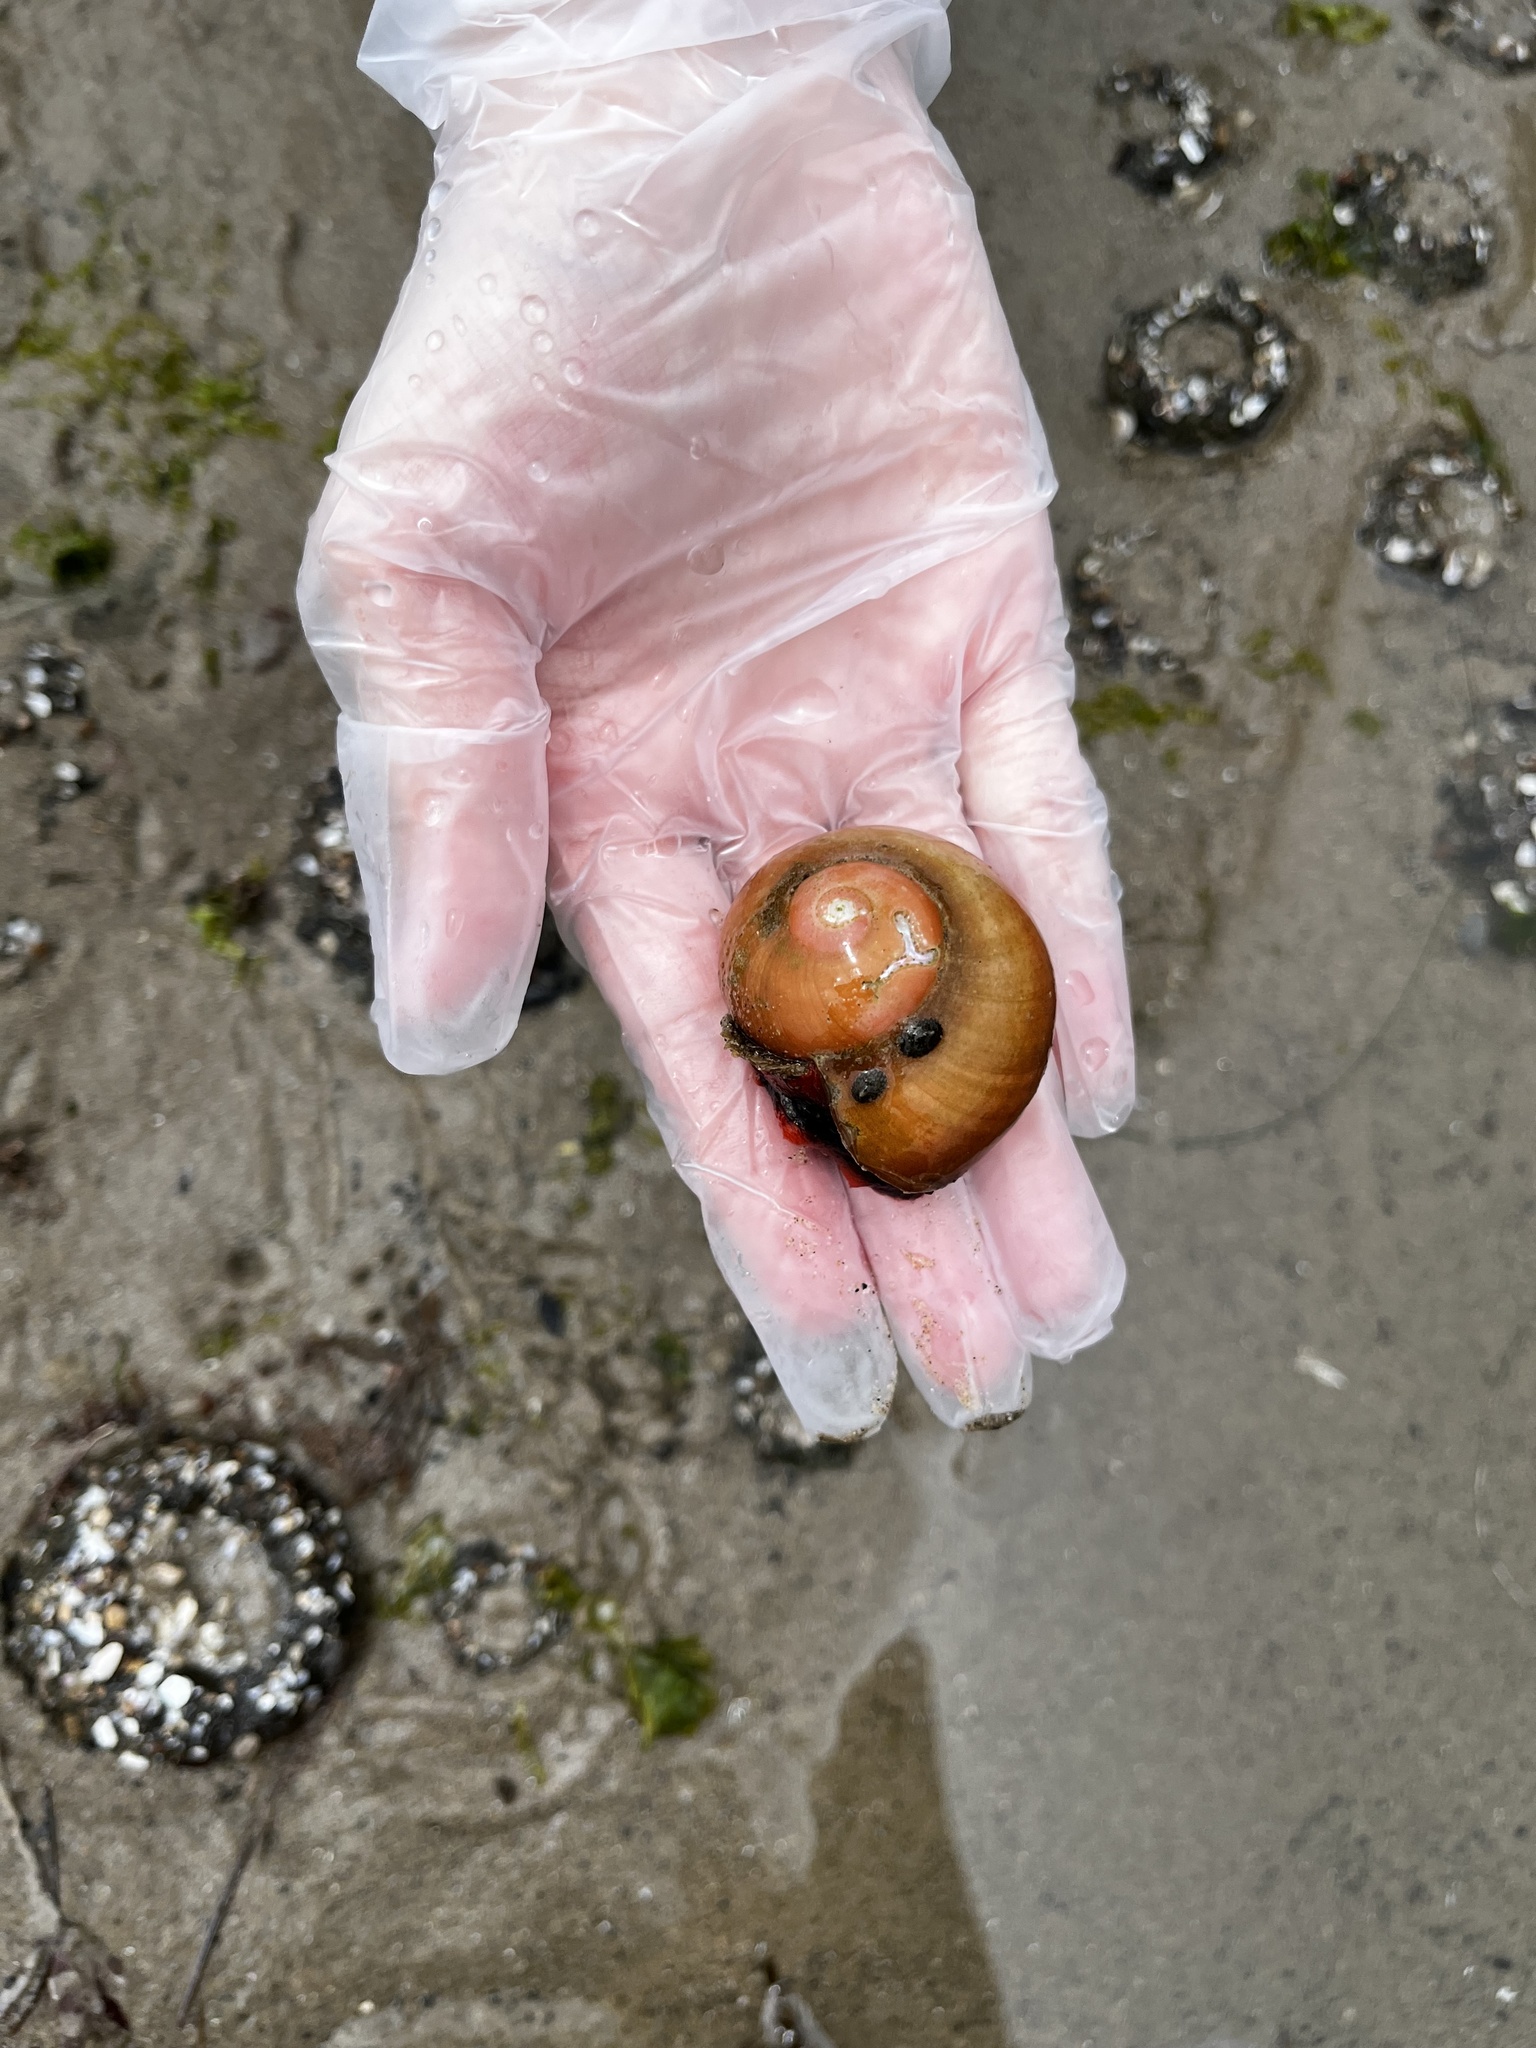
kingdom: Animalia
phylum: Mollusca
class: Gastropoda
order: Trochida
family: Tegulidae
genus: Norrisia
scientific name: Norrisia norrisii
